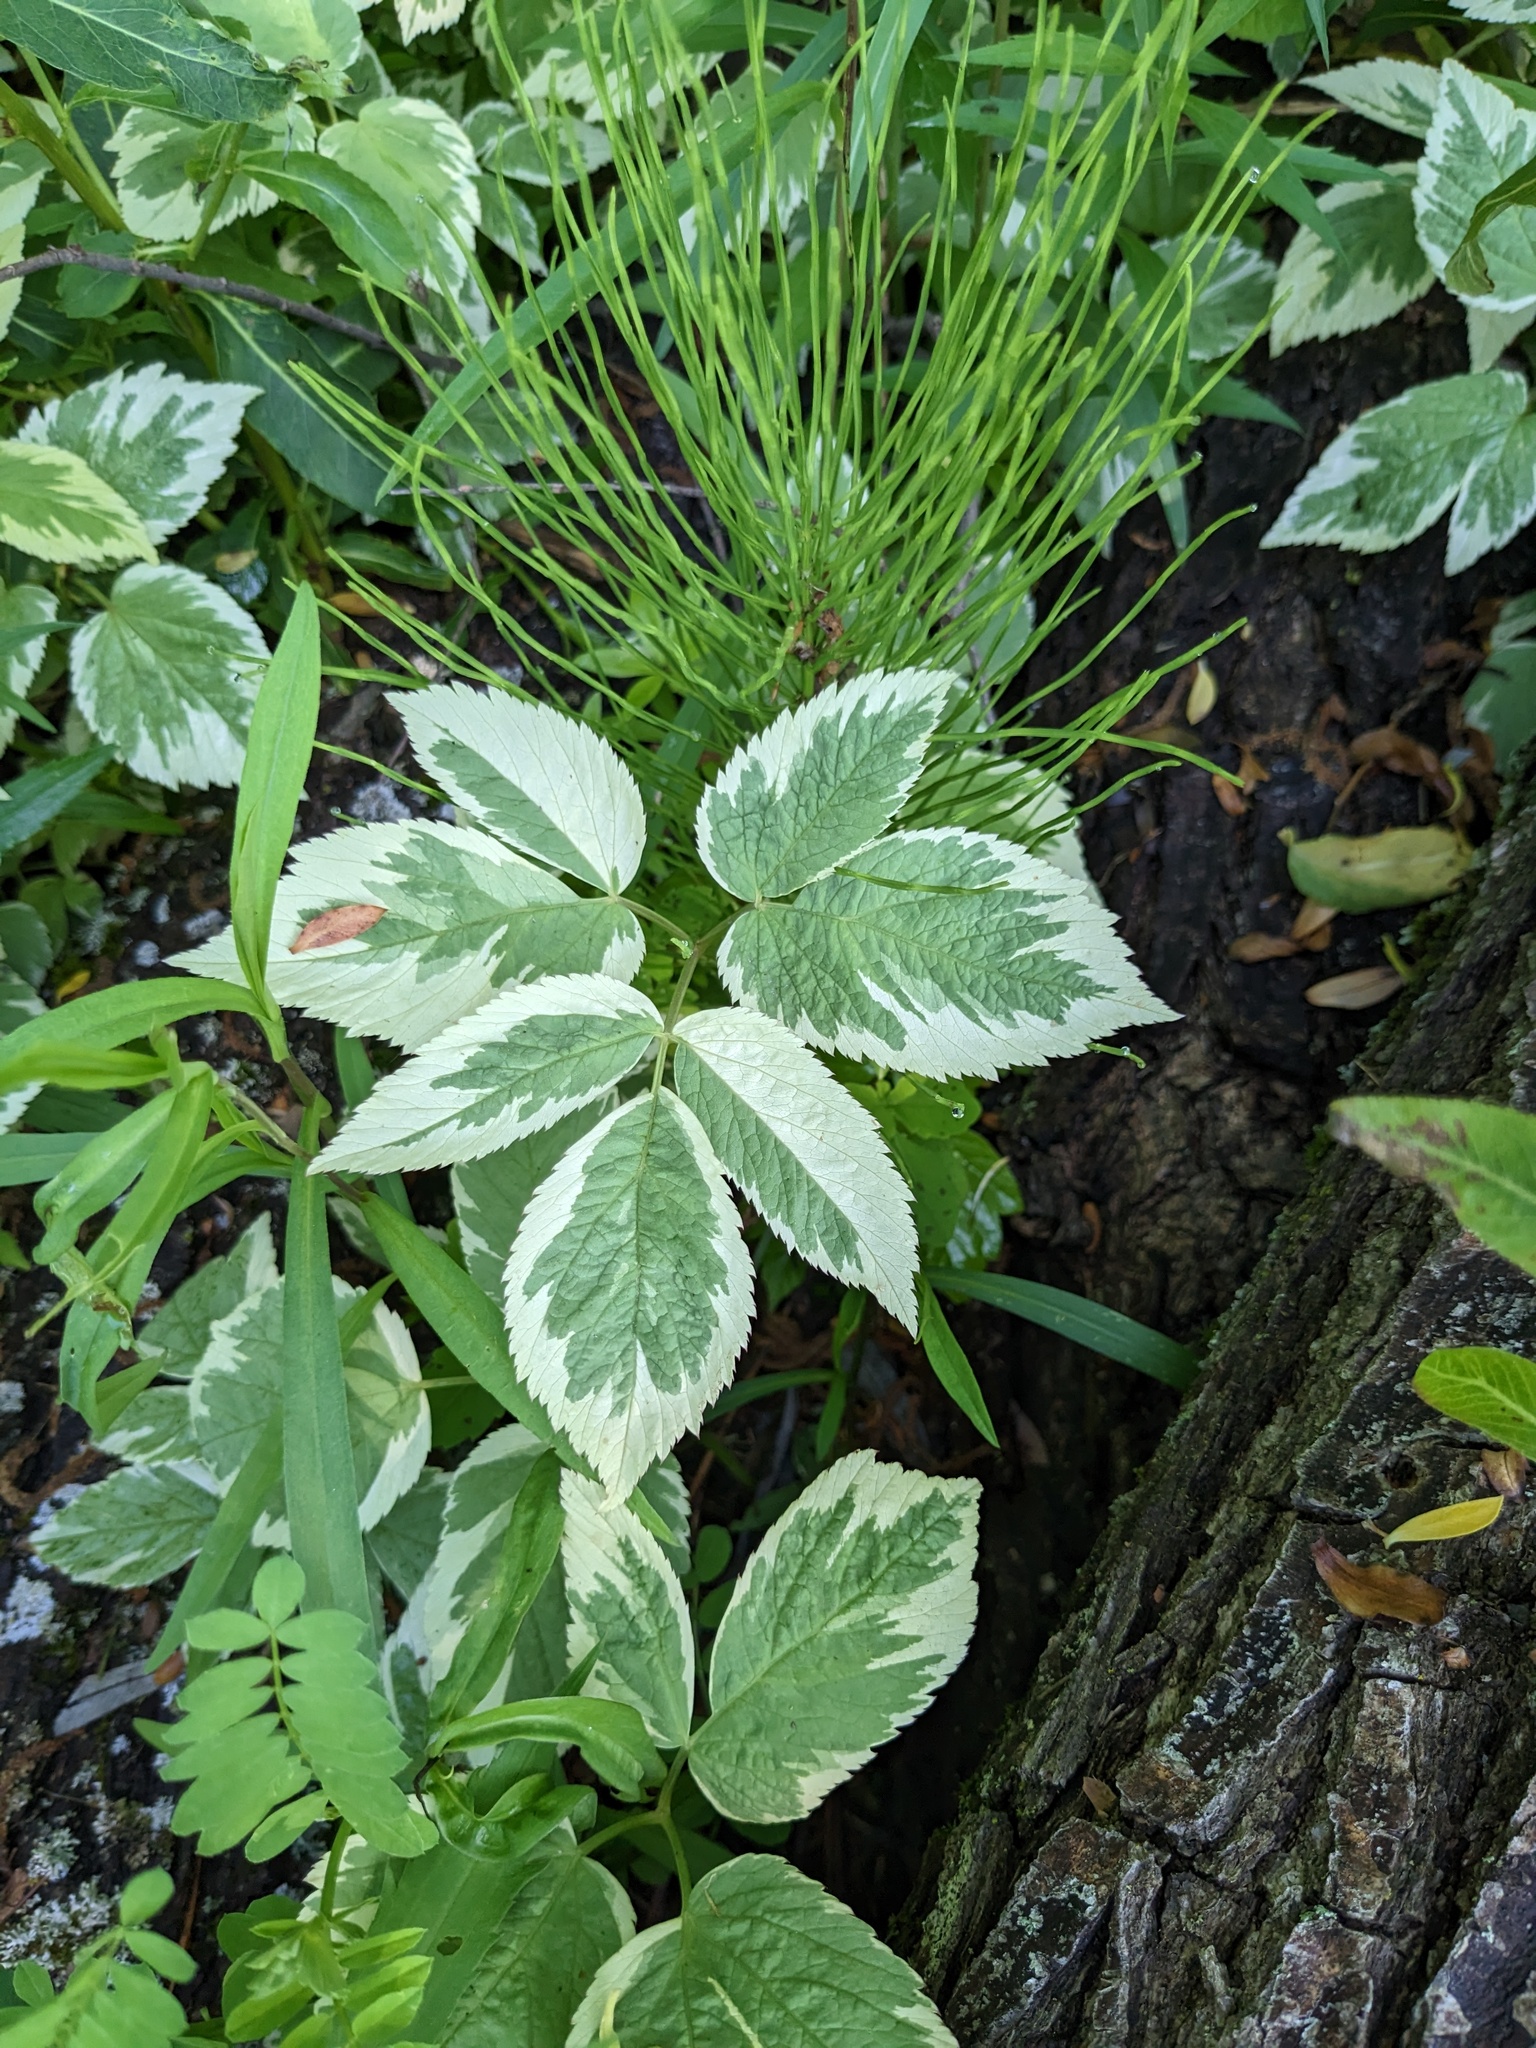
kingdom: Plantae
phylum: Tracheophyta
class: Magnoliopsida
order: Apiales
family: Apiaceae
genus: Aegopodium
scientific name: Aegopodium podagraria
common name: Ground-elder
